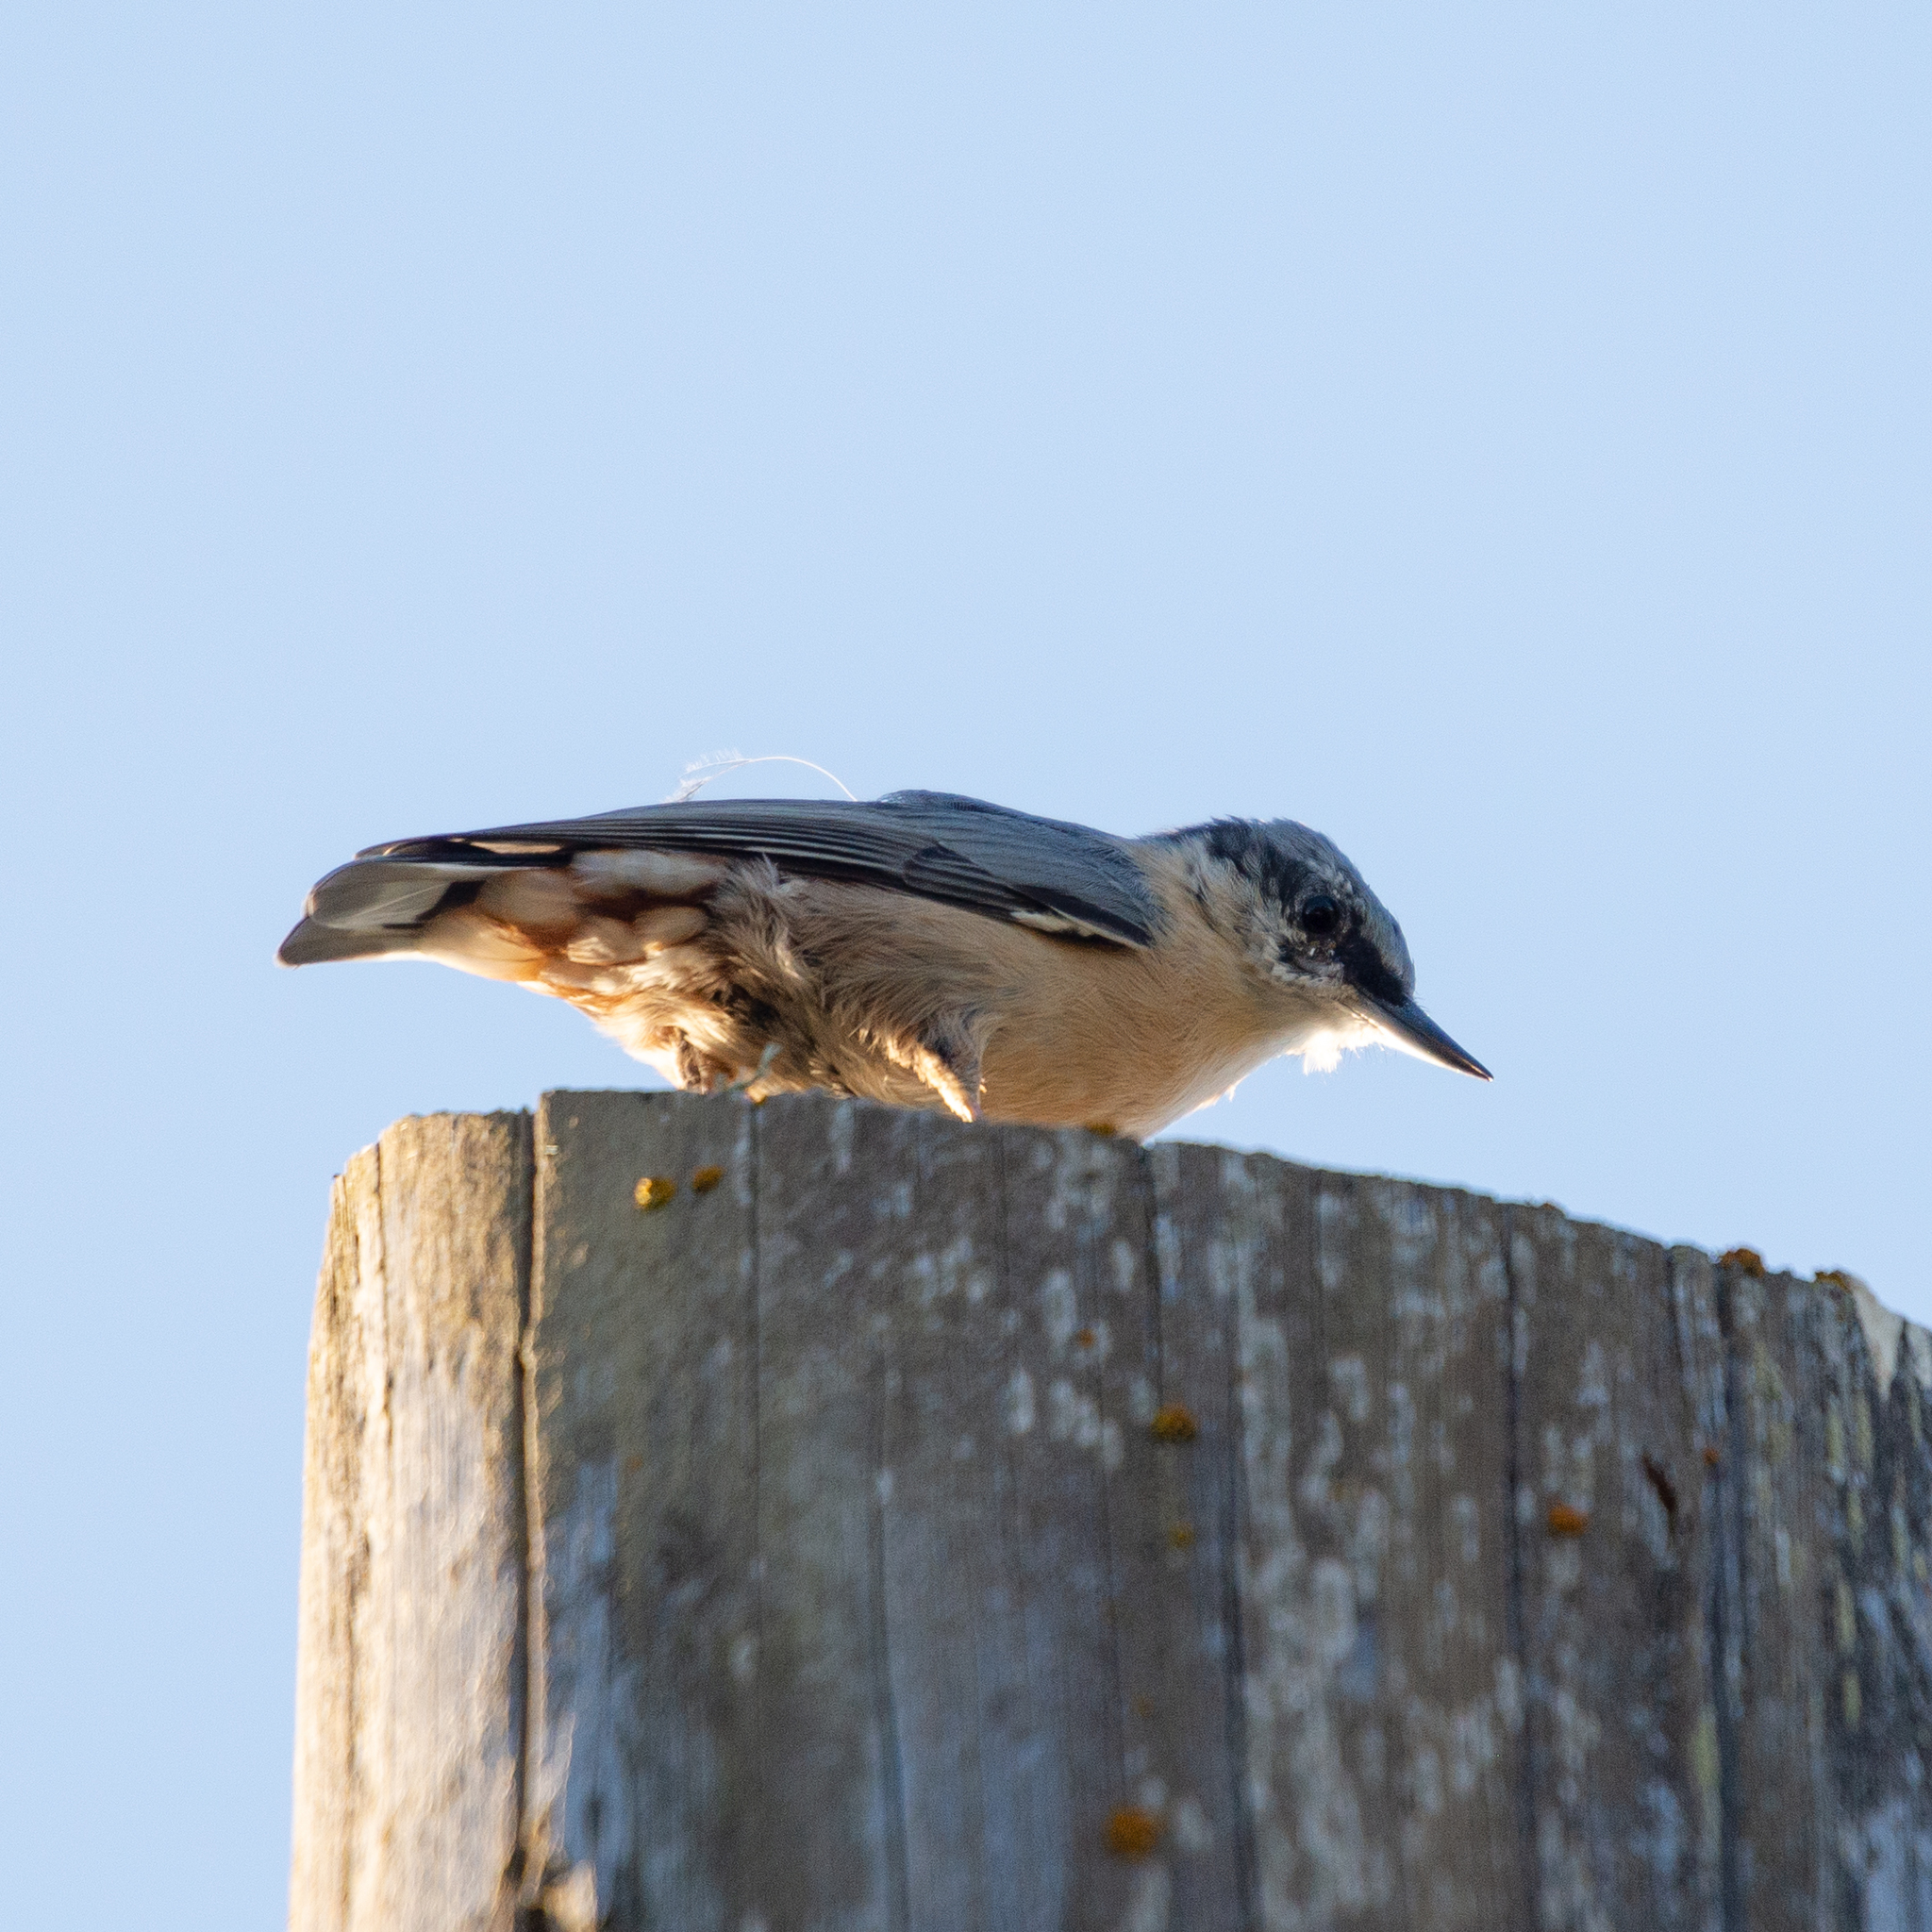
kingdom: Animalia
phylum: Chordata
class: Aves
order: Passeriformes
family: Sittidae
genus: Sitta
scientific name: Sitta europaea
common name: Eurasian nuthatch
